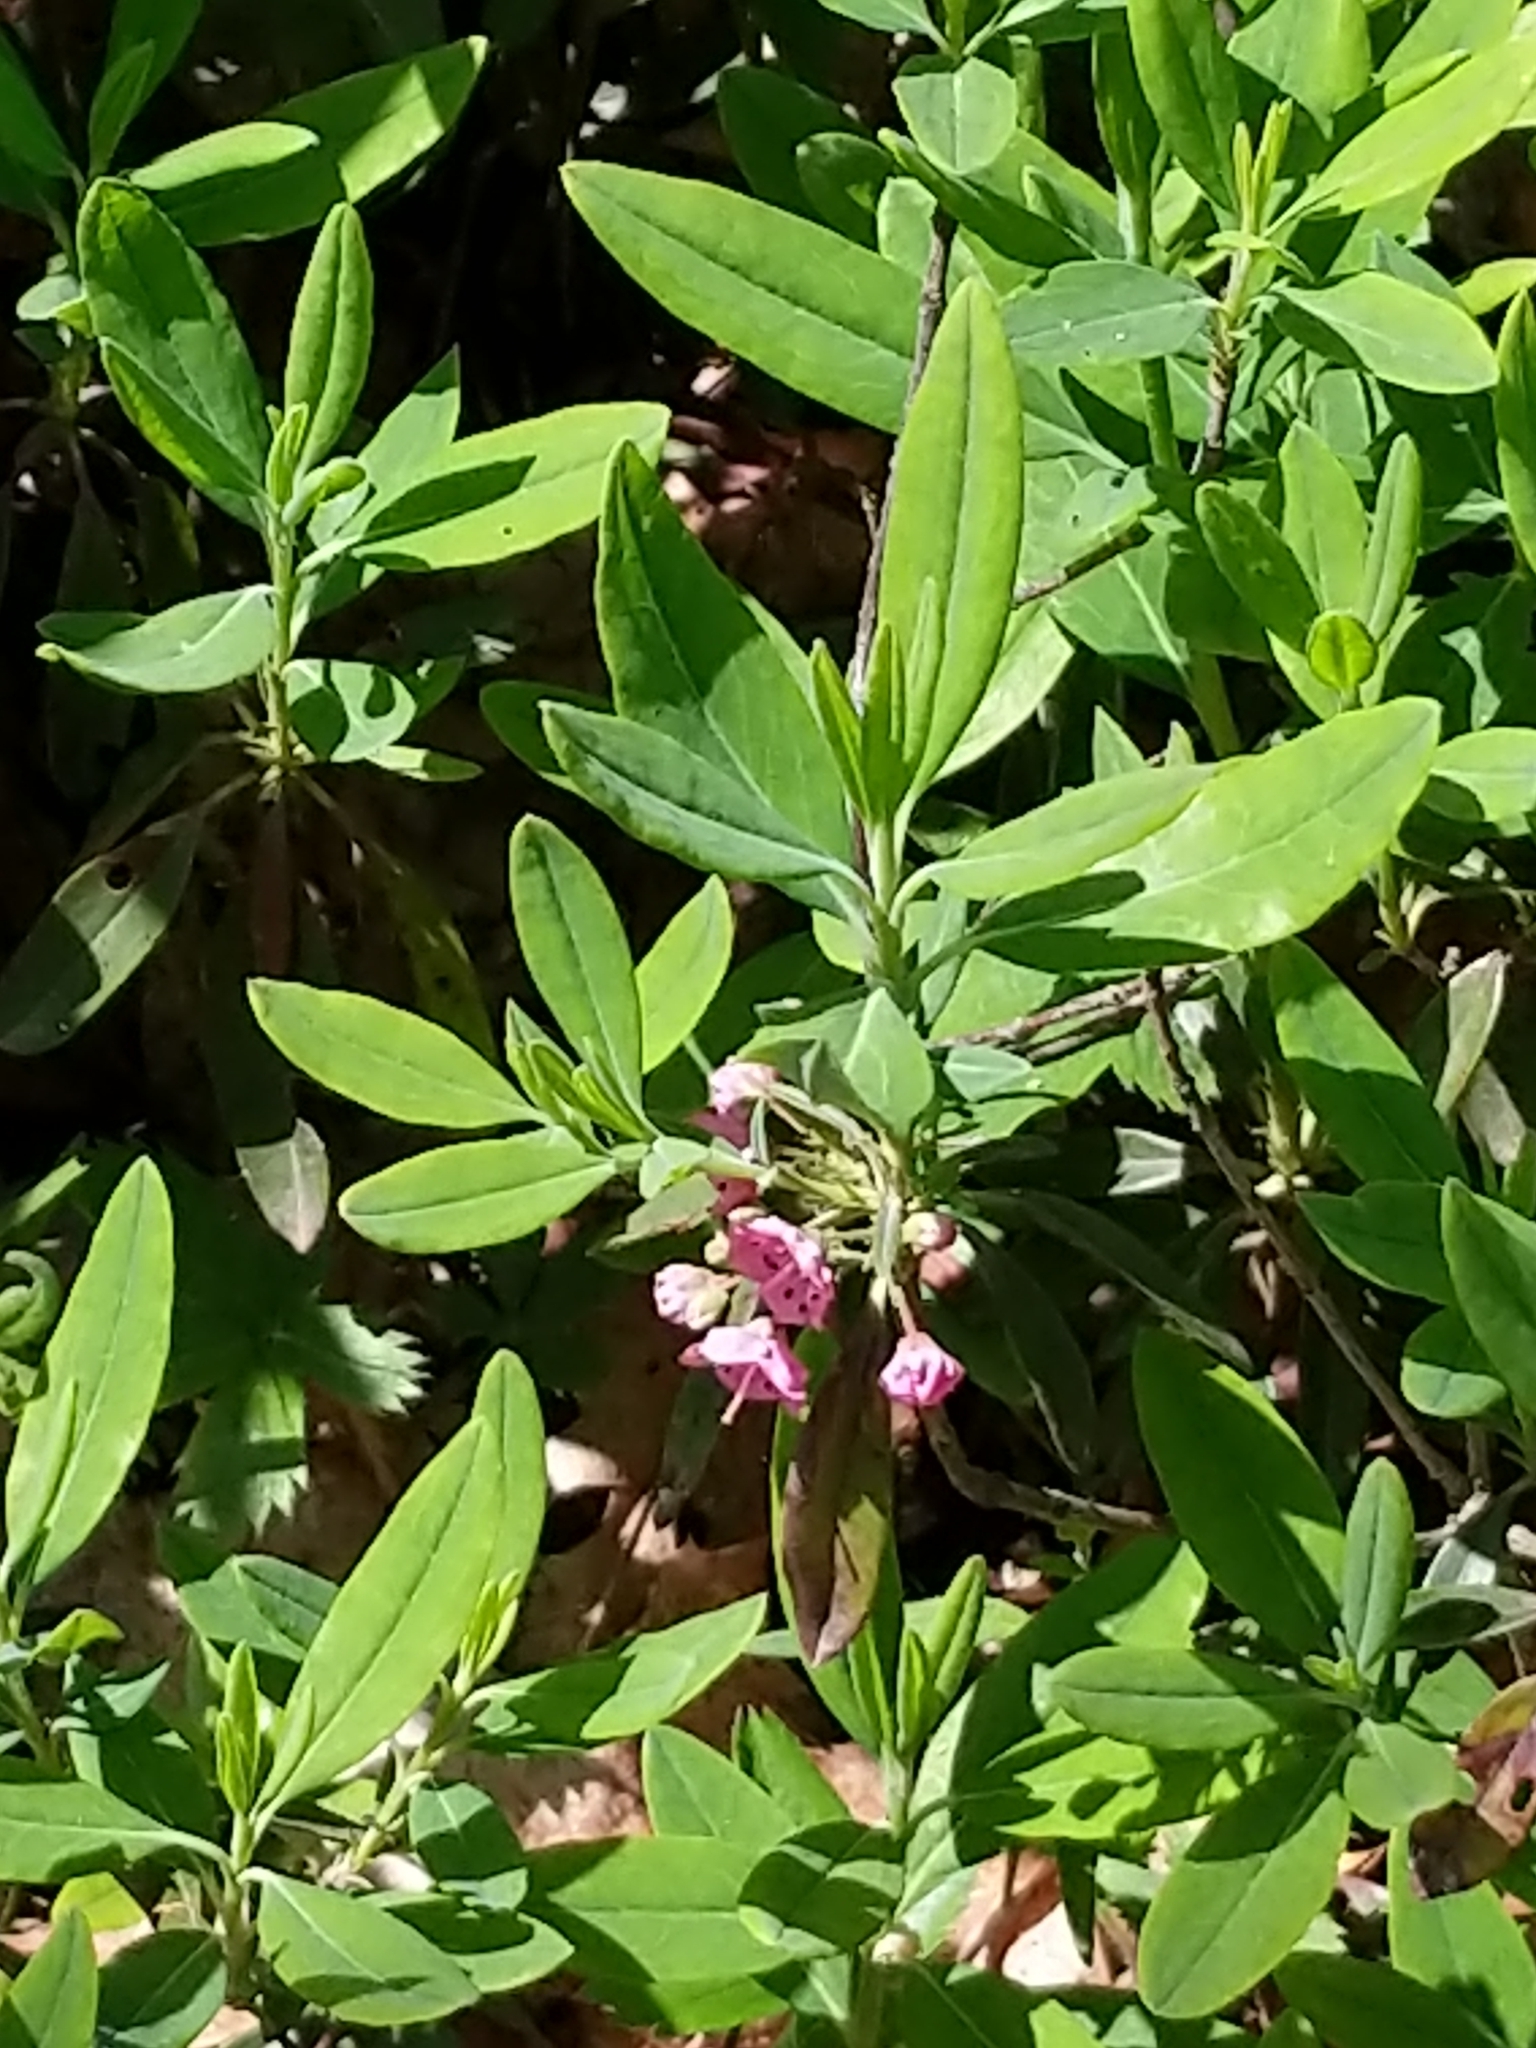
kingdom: Plantae
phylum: Tracheophyta
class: Magnoliopsida
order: Ericales
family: Ericaceae
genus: Kalmia
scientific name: Kalmia angustifolia
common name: Sheep-laurel
